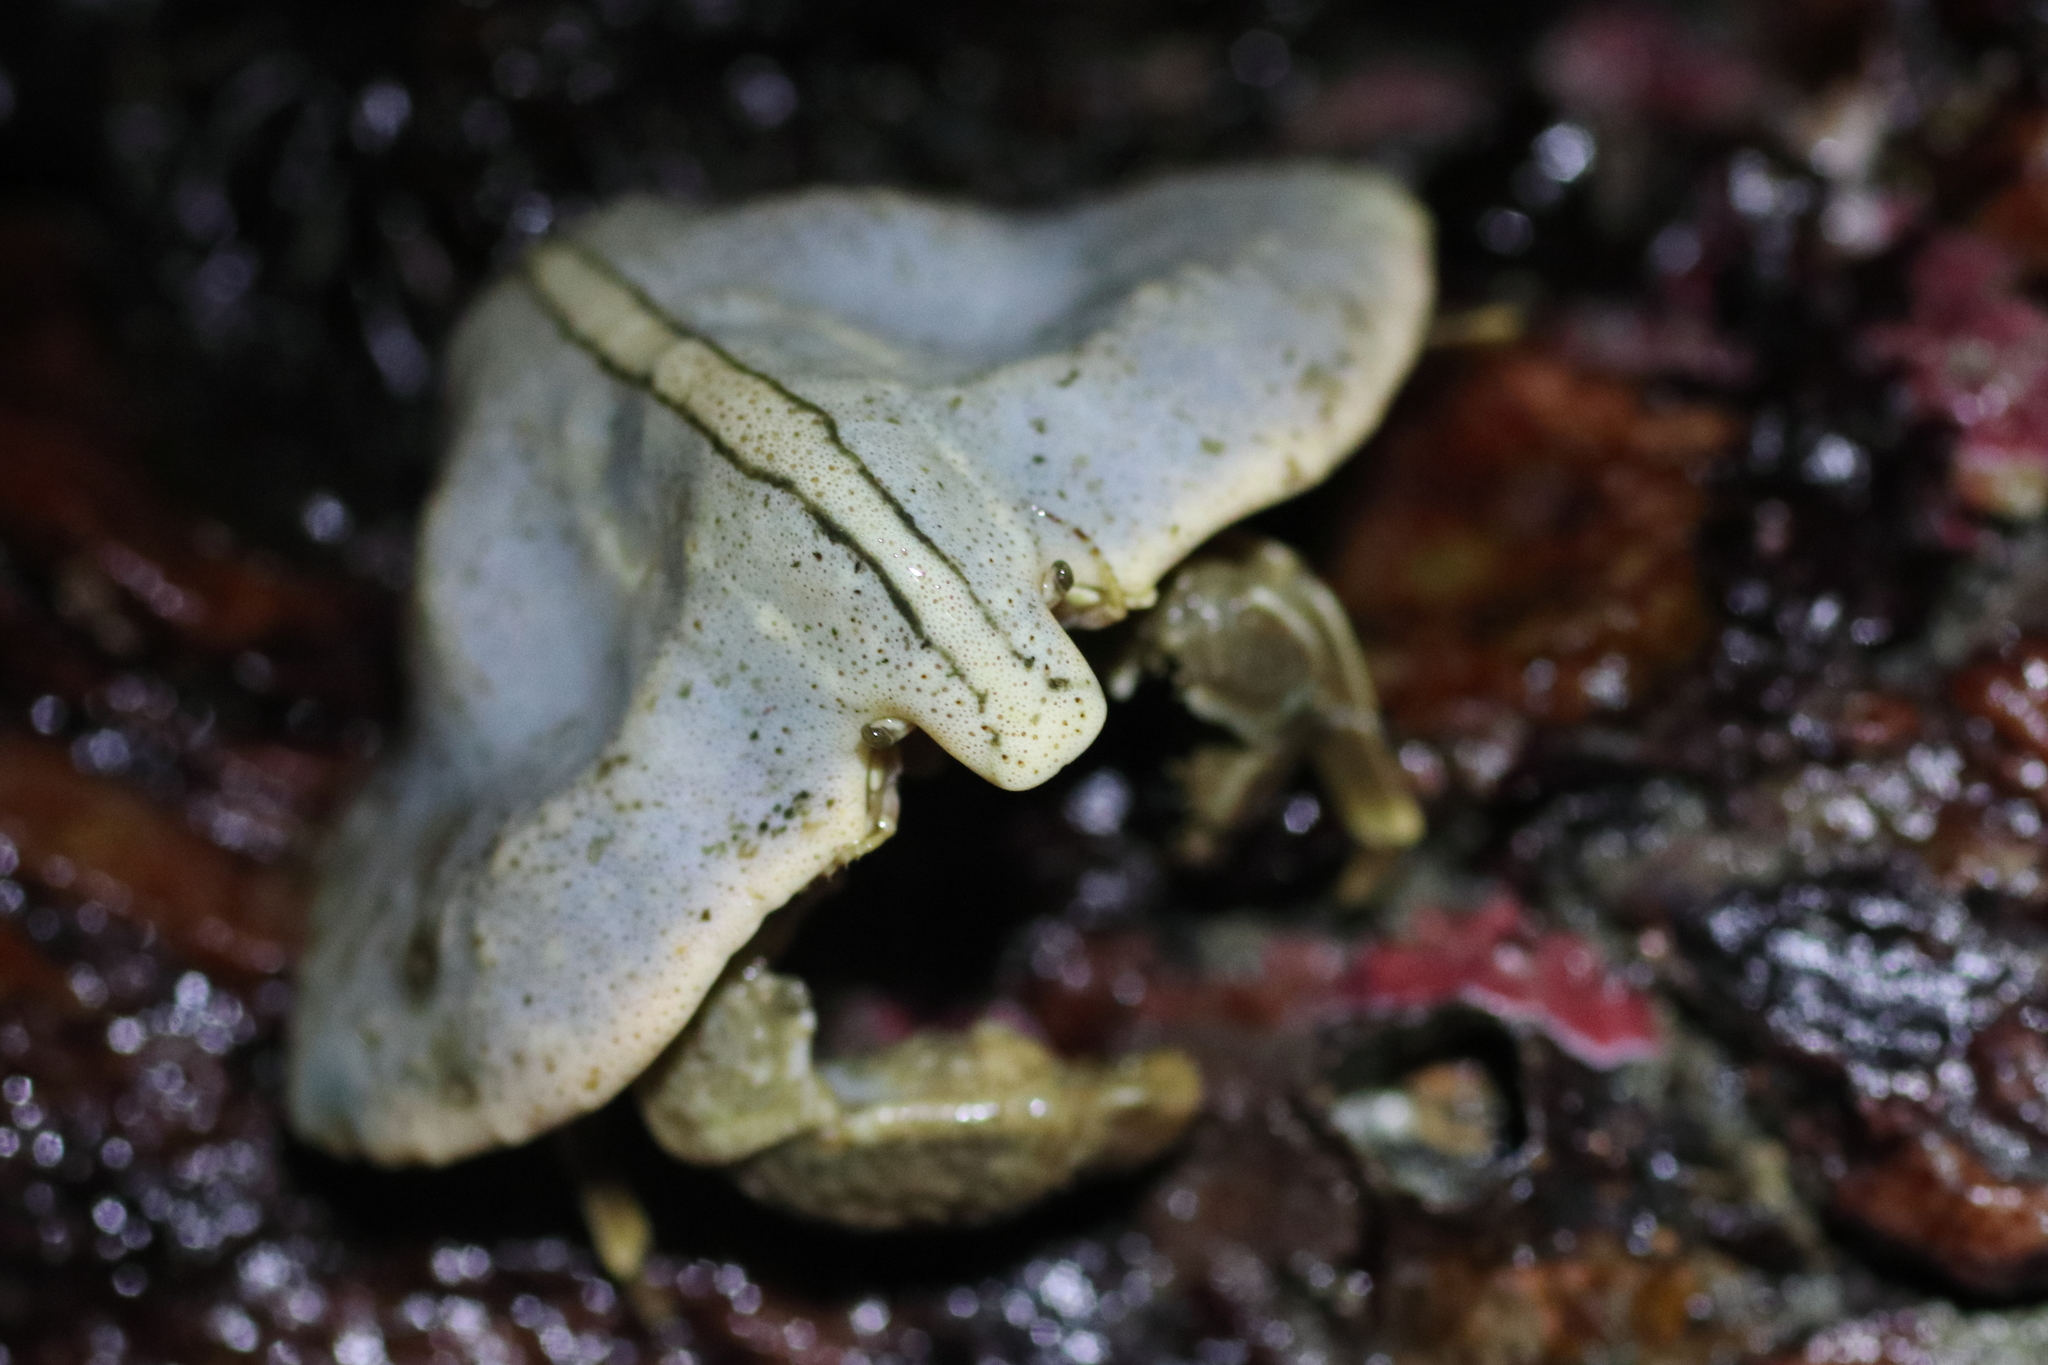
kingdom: Animalia
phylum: Arthropoda
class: Malacostraca
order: Decapoda
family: Lithodidae
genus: Cryptolithodes
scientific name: Cryptolithodes typicus
